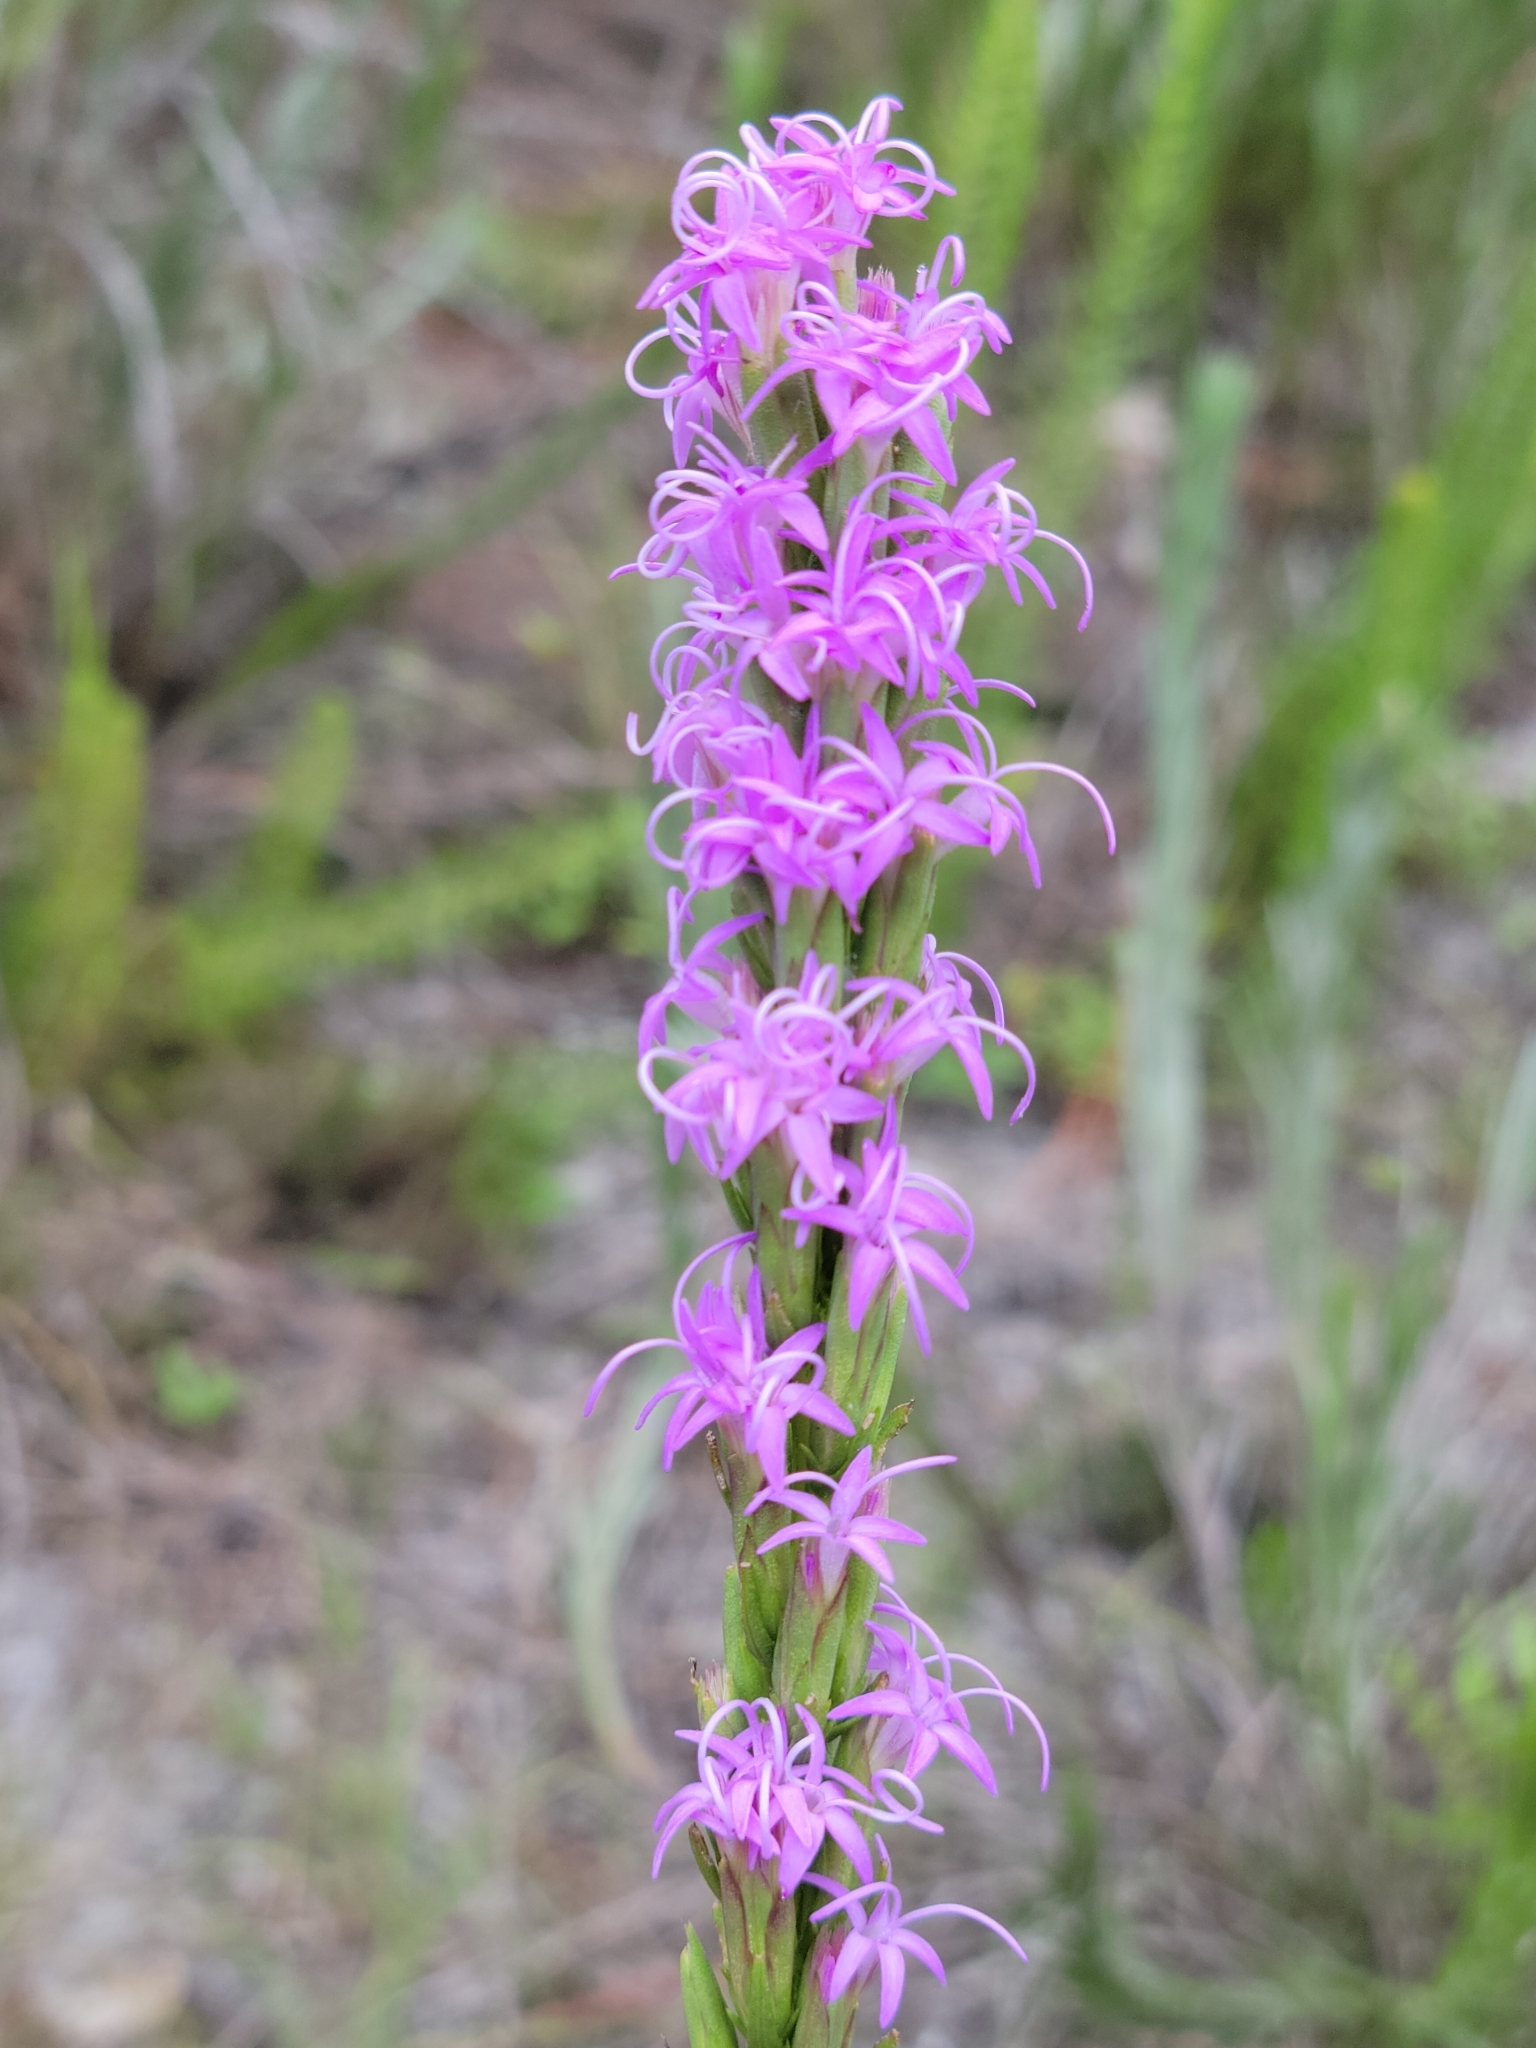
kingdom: Plantae
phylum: Tracheophyta
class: Magnoliopsida
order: Asterales
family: Asteraceae
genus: Liatris
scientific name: Liatris chapmanii
